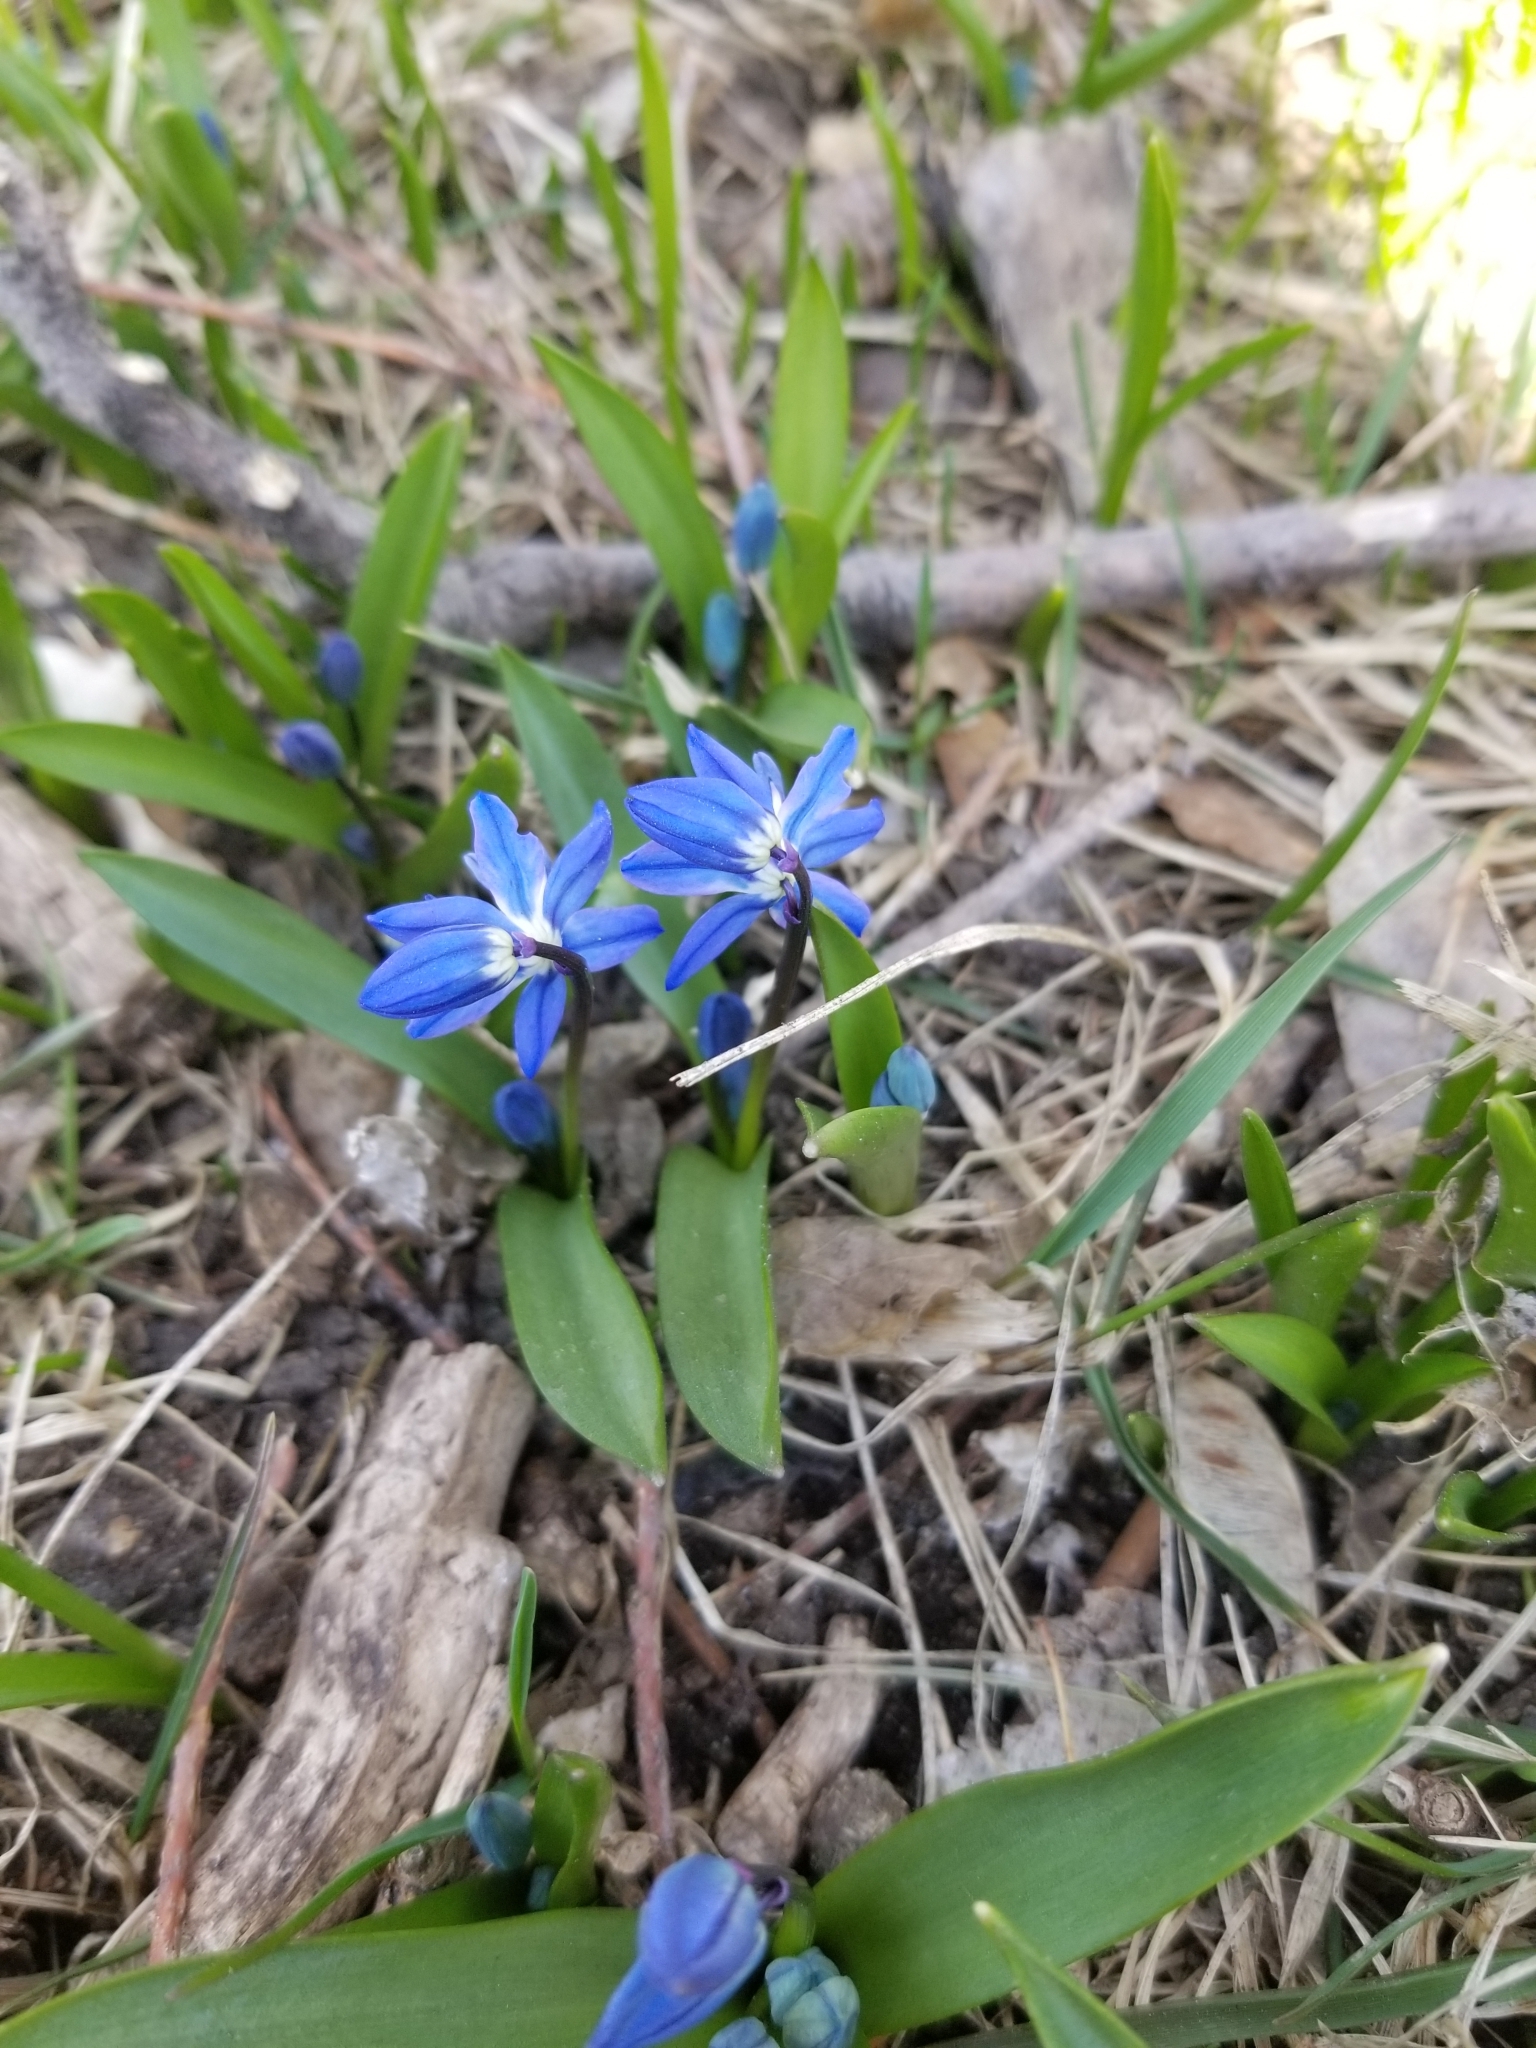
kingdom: Plantae
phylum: Tracheophyta
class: Liliopsida
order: Asparagales
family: Asparagaceae
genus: Scilla
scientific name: Scilla siberica
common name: Siberian squill
